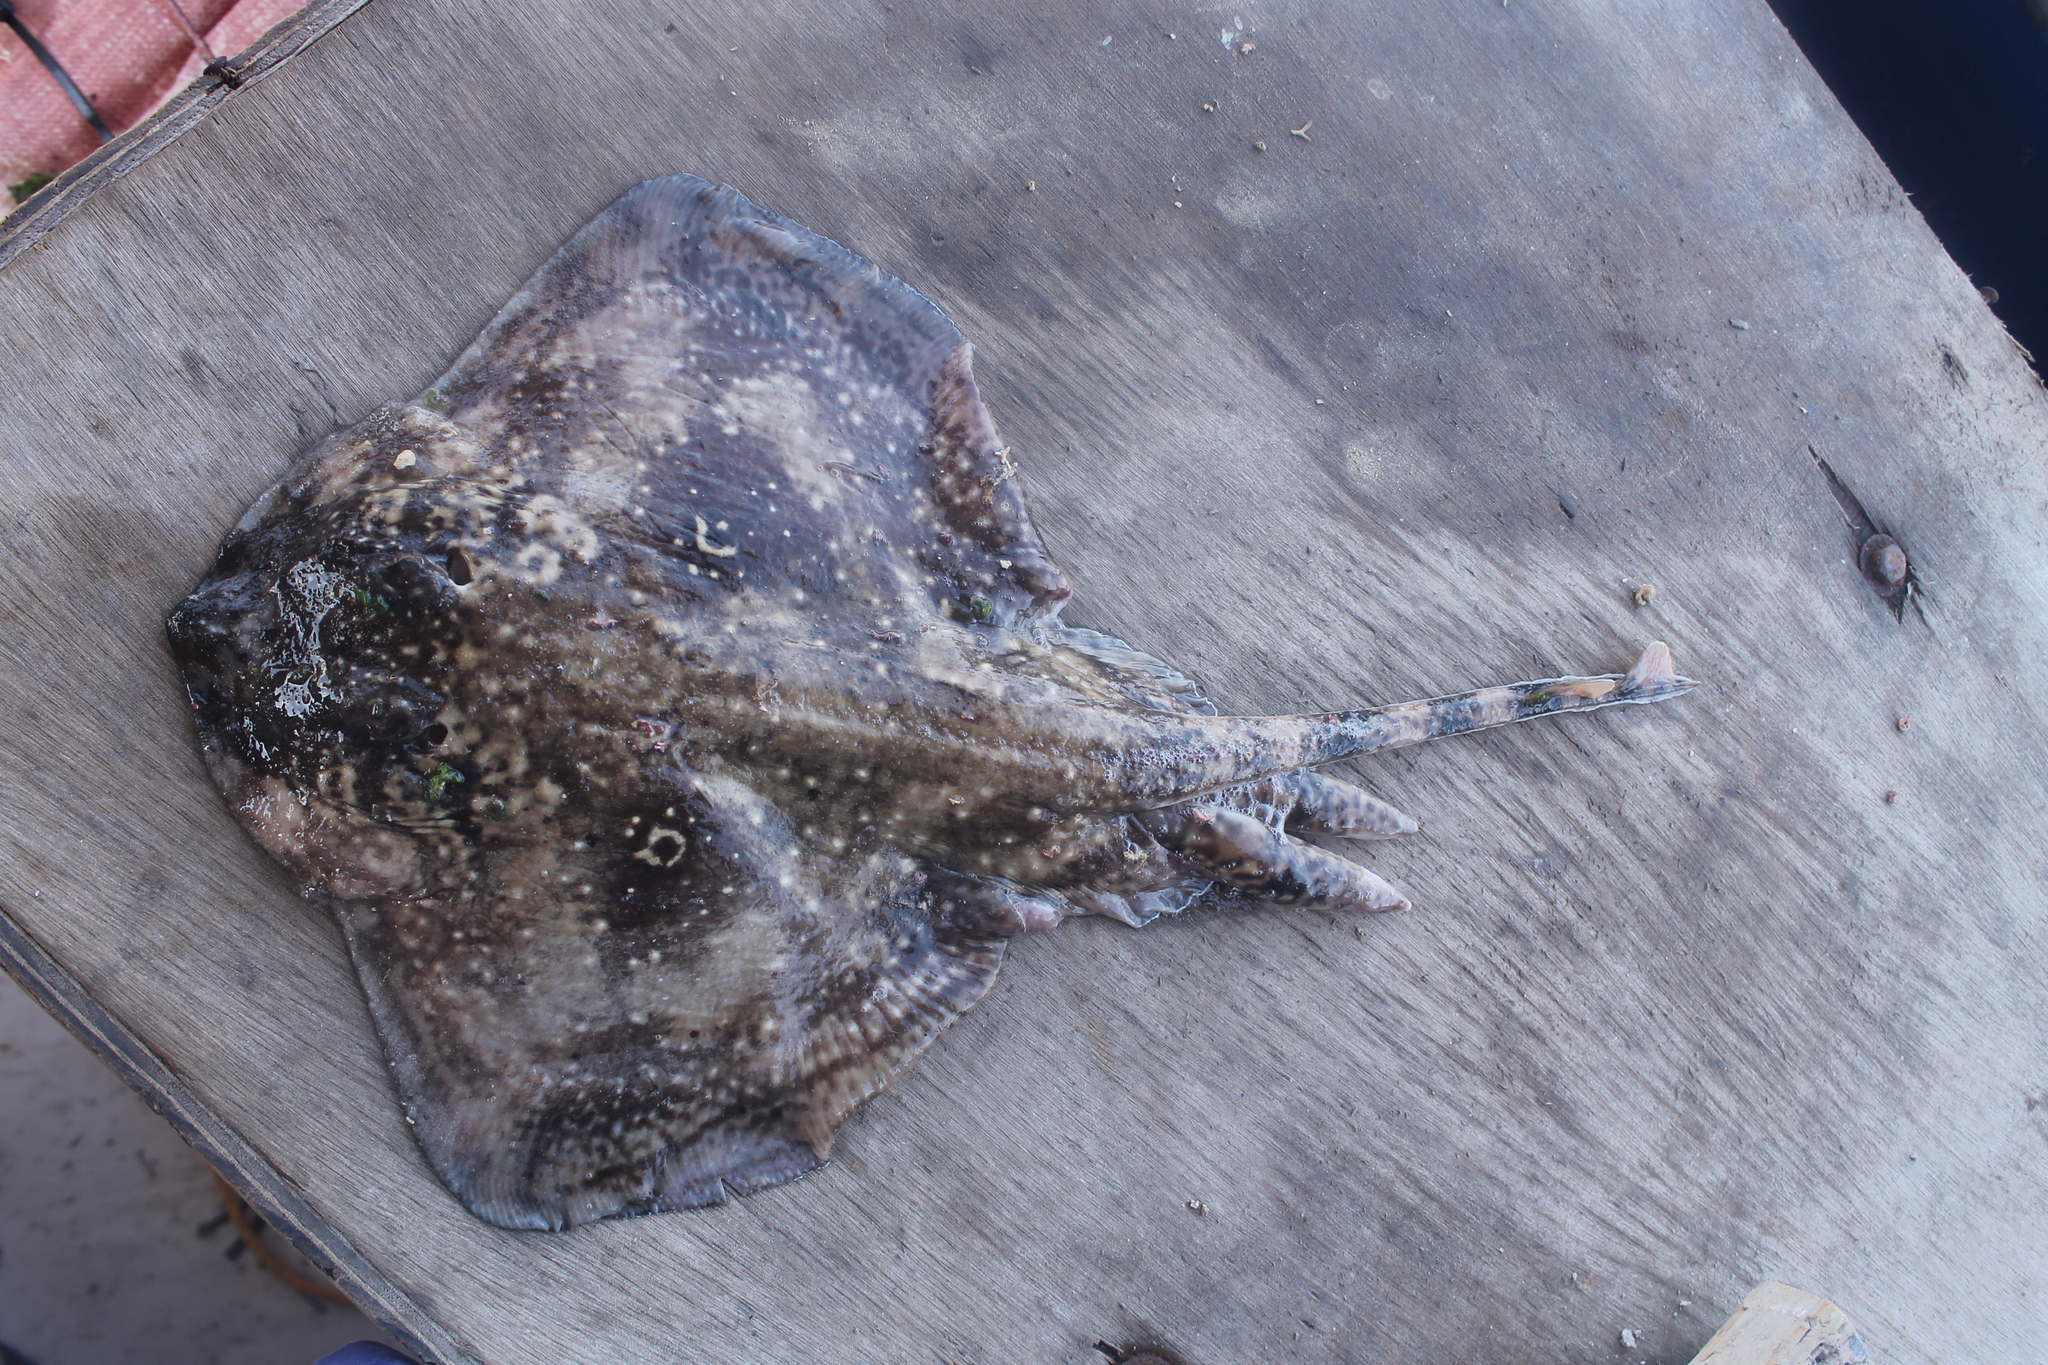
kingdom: Animalia
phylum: Chordata
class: Elasmobranchii
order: Rajiformes
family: Rajidae
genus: Raja
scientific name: Raja radula
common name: Rough ray
